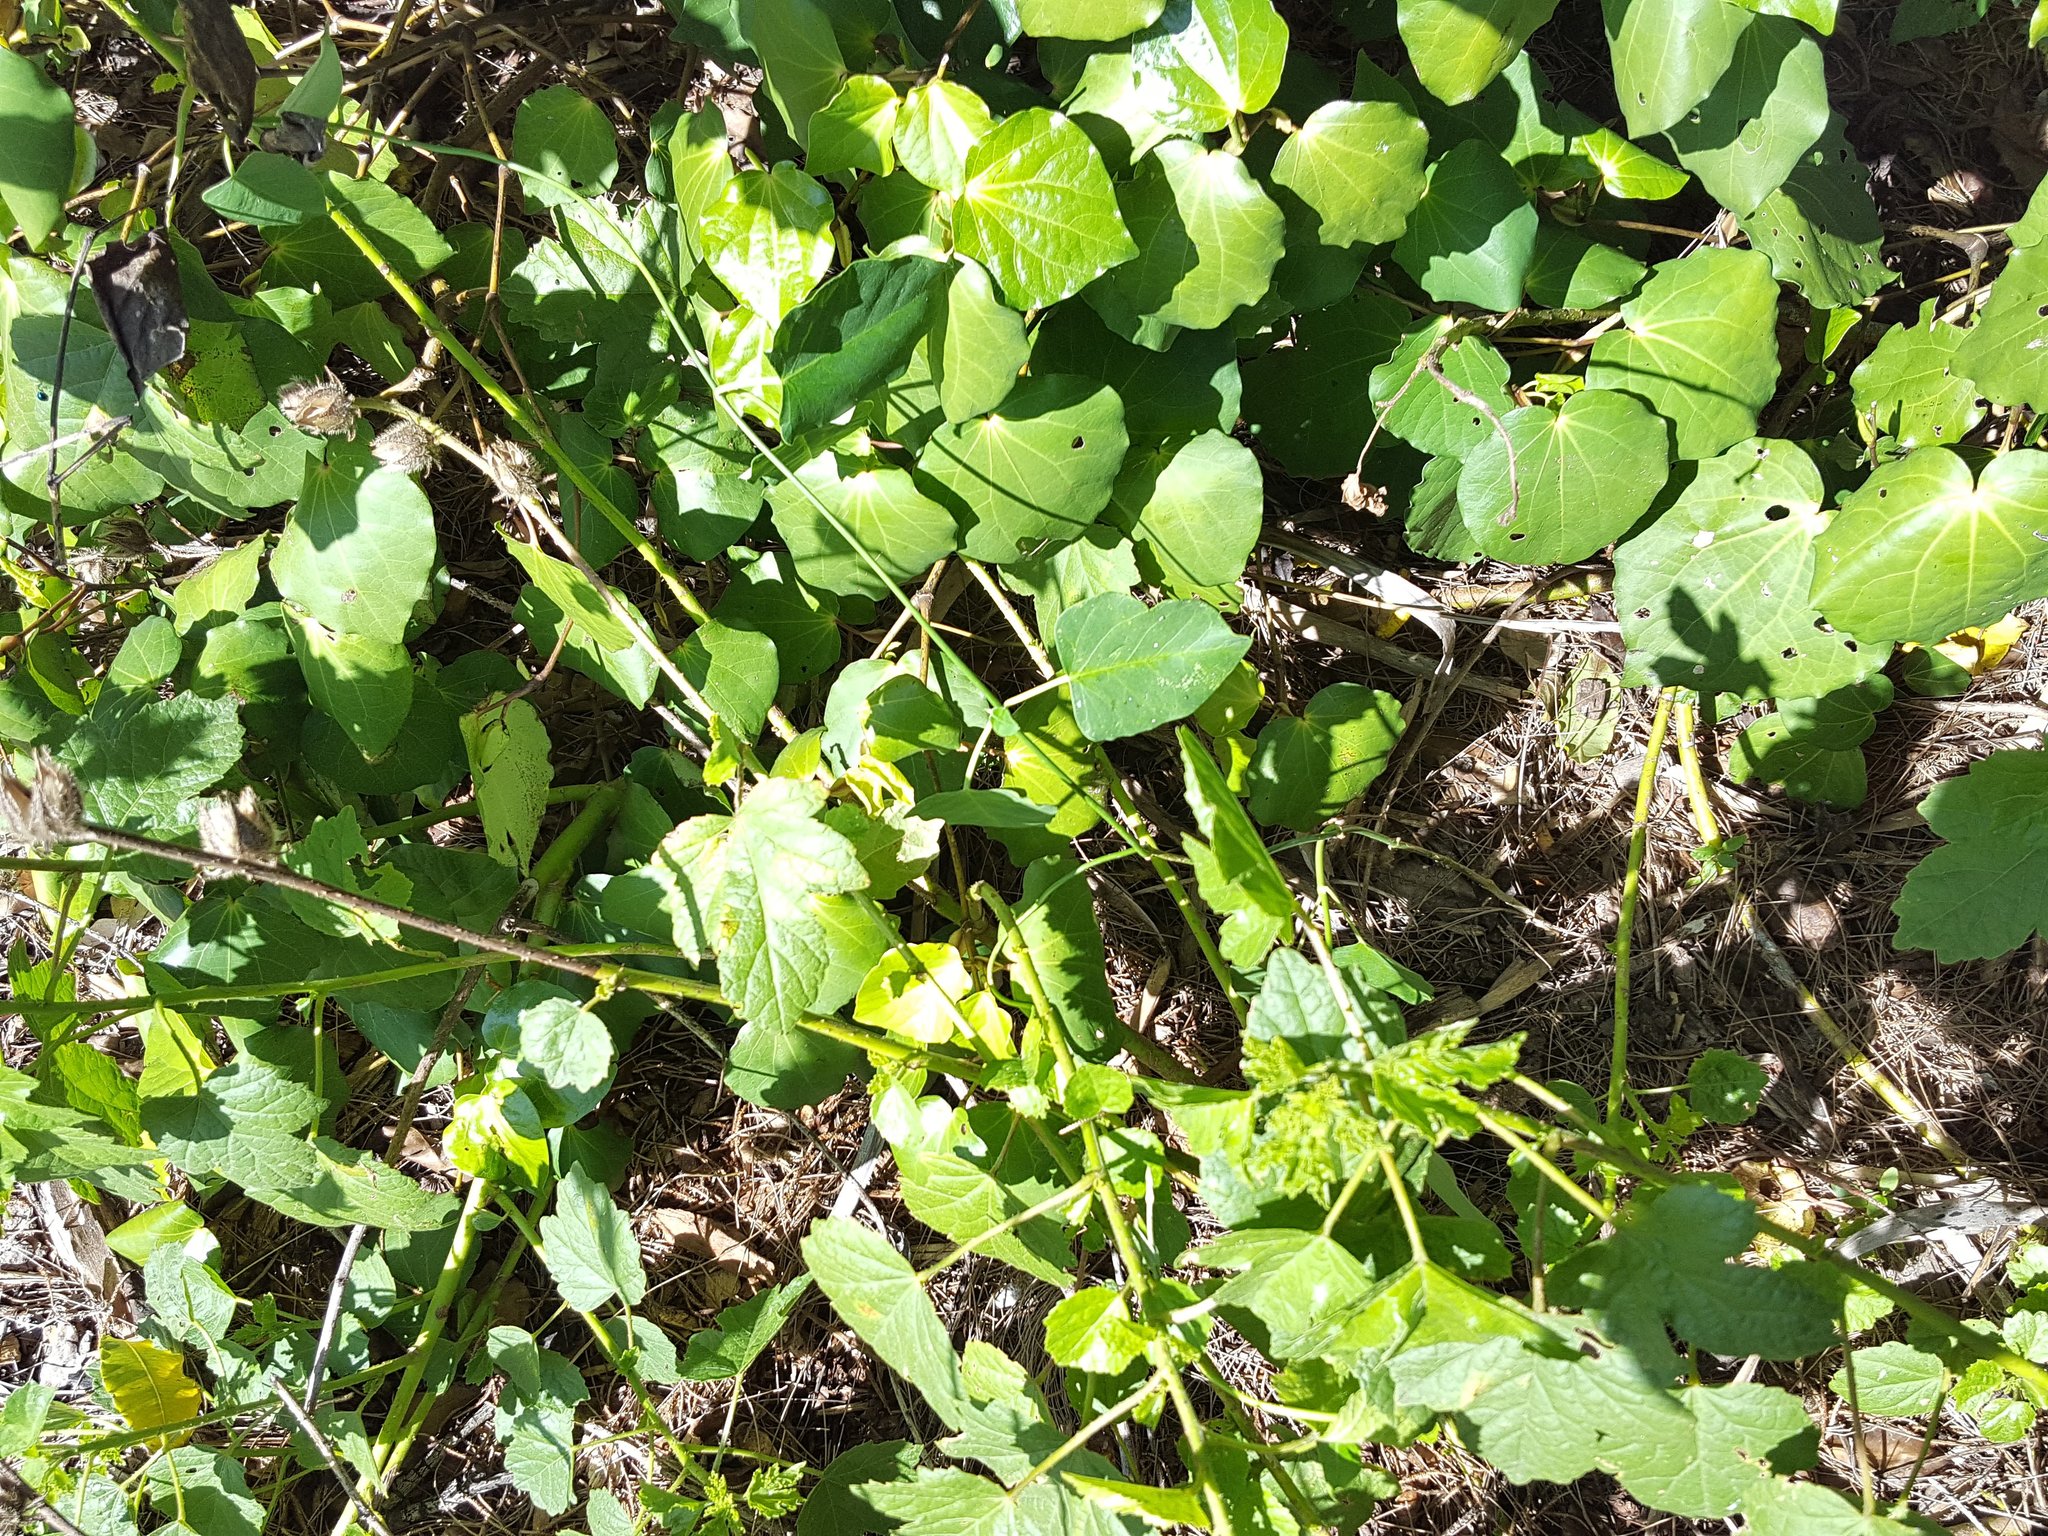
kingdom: Plantae
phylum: Tracheophyta
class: Magnoliopsida
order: Gentianales
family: Apocynaceae
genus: Araujia
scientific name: Araujia sericifera
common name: White bladderflower
